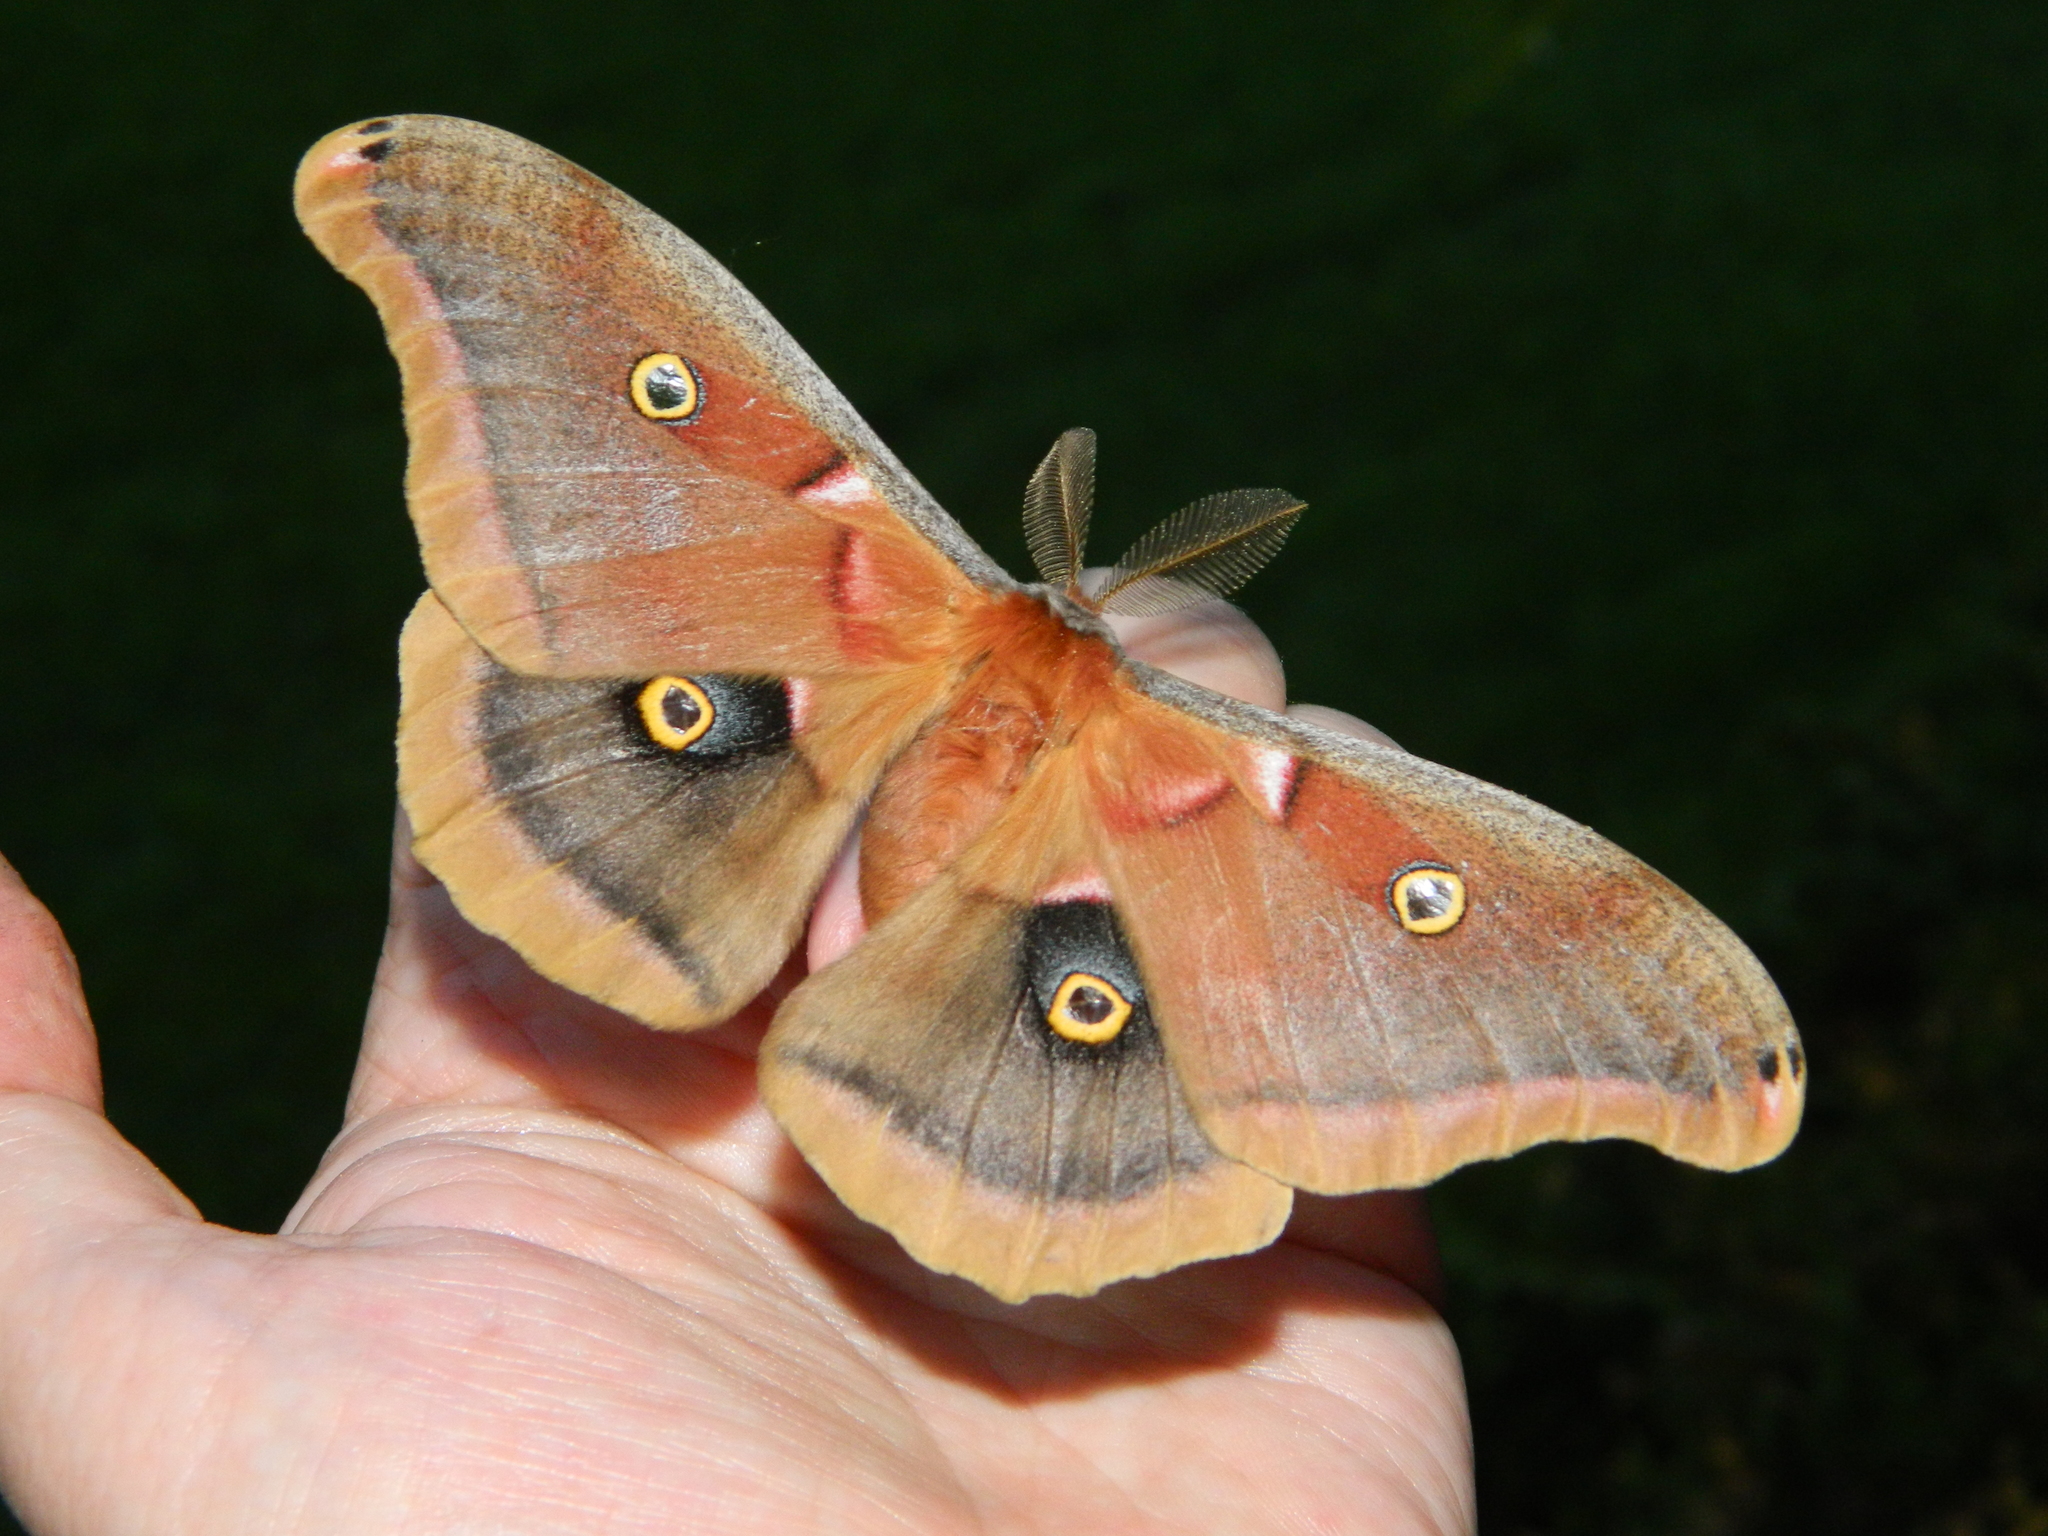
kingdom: Animalia
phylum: Arthropoda
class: Insecta
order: Lepidoptera
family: Saturniidae
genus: Antheraea
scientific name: Antheraea polyphemus
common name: Polyphemus moth
